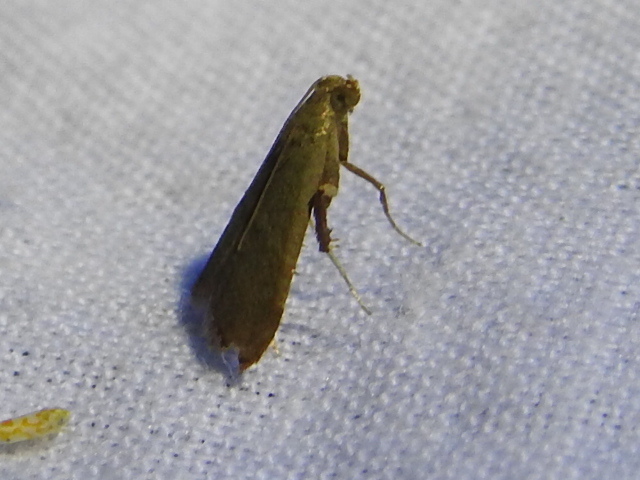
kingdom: Animalia
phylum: Arthropoda
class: Insecta
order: Lepidoptera
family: Pyralidae
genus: Arta
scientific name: Arta olivalis
